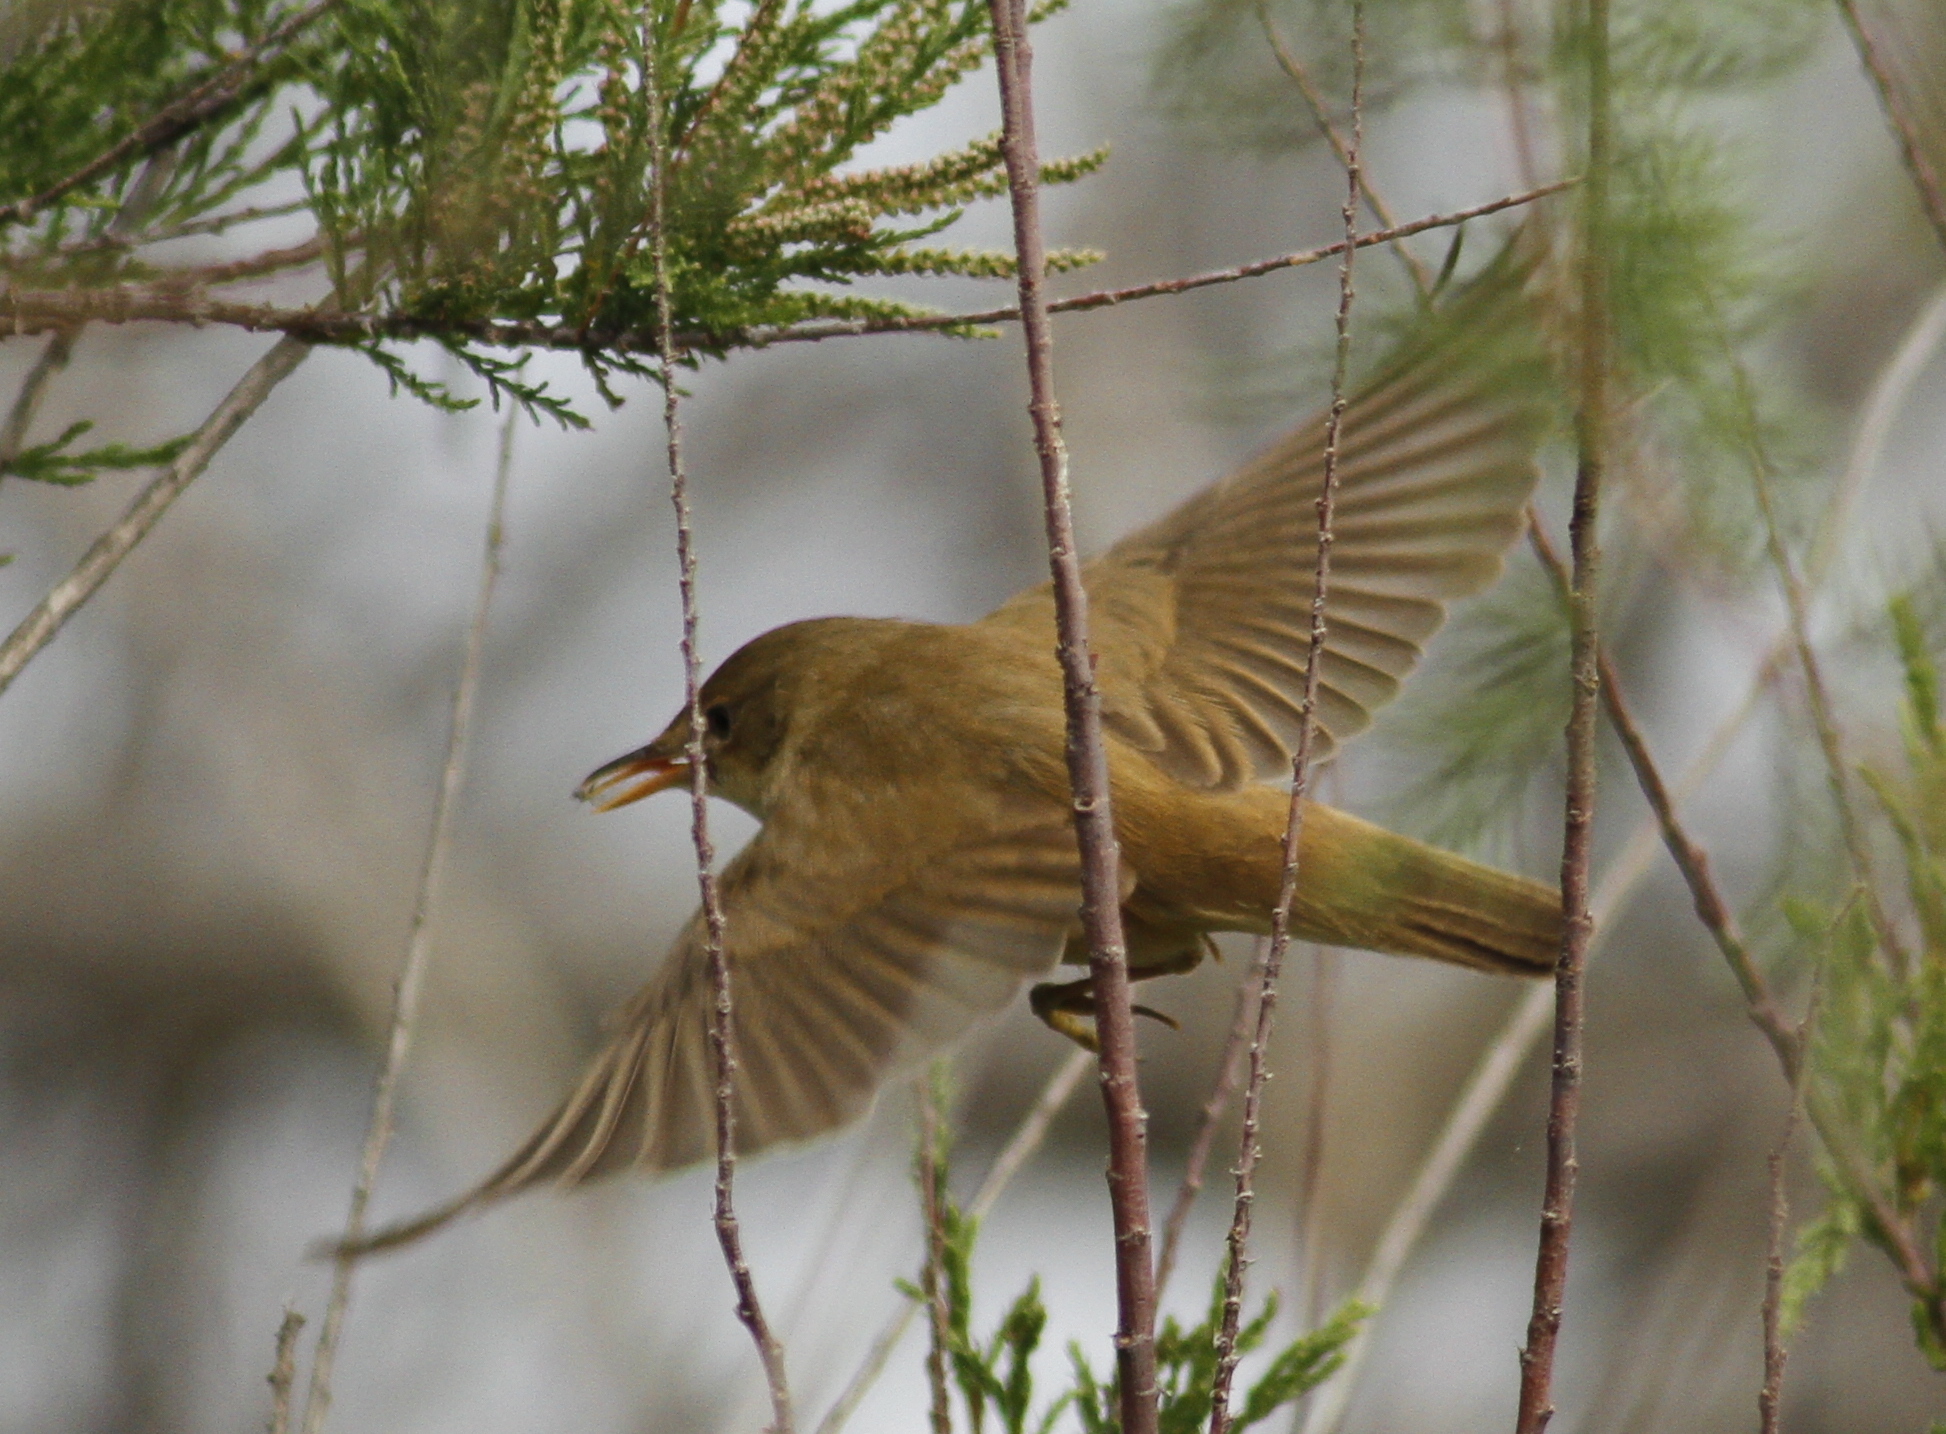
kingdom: Animalia
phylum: Chordata
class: Aves
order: Passeriformes
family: Acrocephalidae
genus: Acrocephalus
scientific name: Acrocephalus scirpaceus
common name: Eurasian reed warbler
